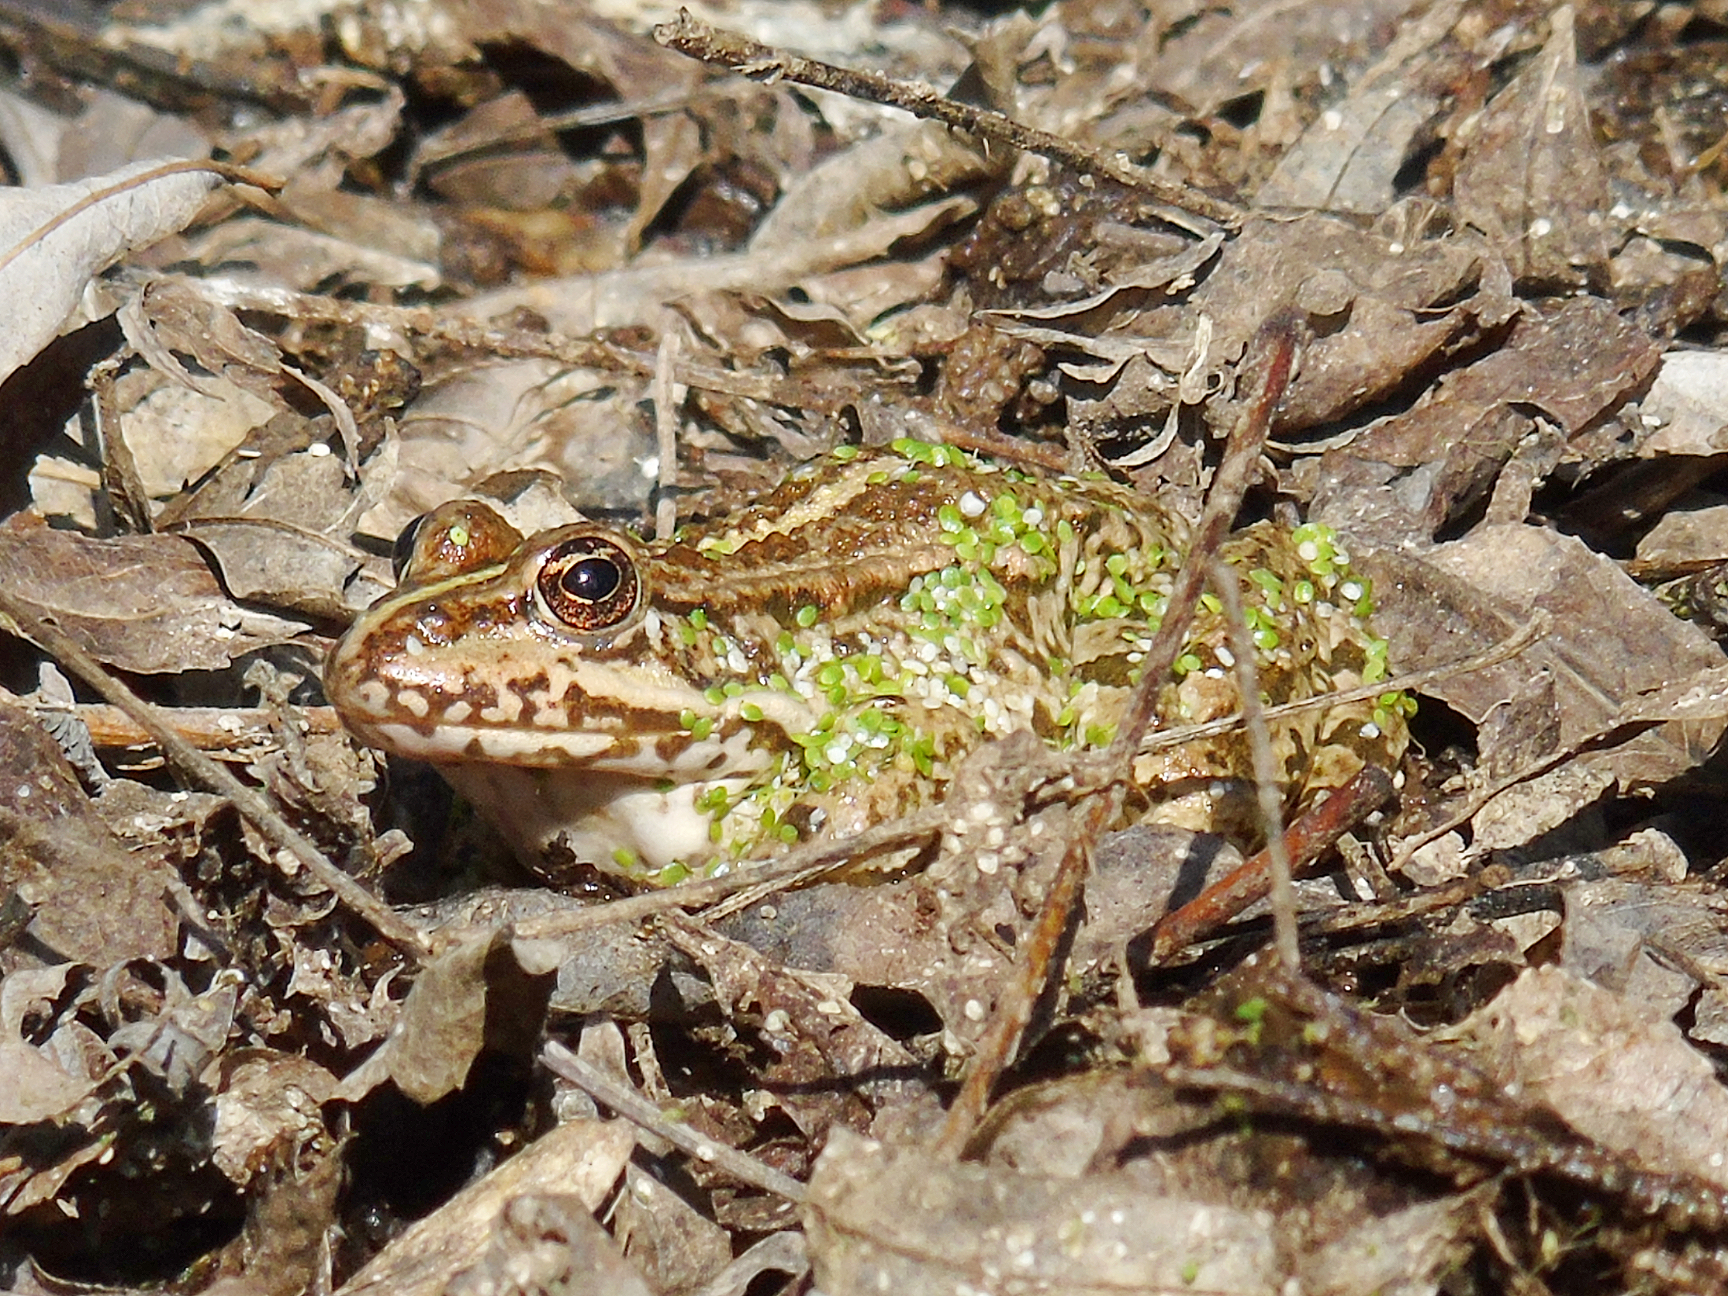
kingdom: Animalia
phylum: Chordata
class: Amphibia
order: Anura
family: Ranidae
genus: Pelophylax
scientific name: Pelophylax ridibundus
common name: Marsh frog
